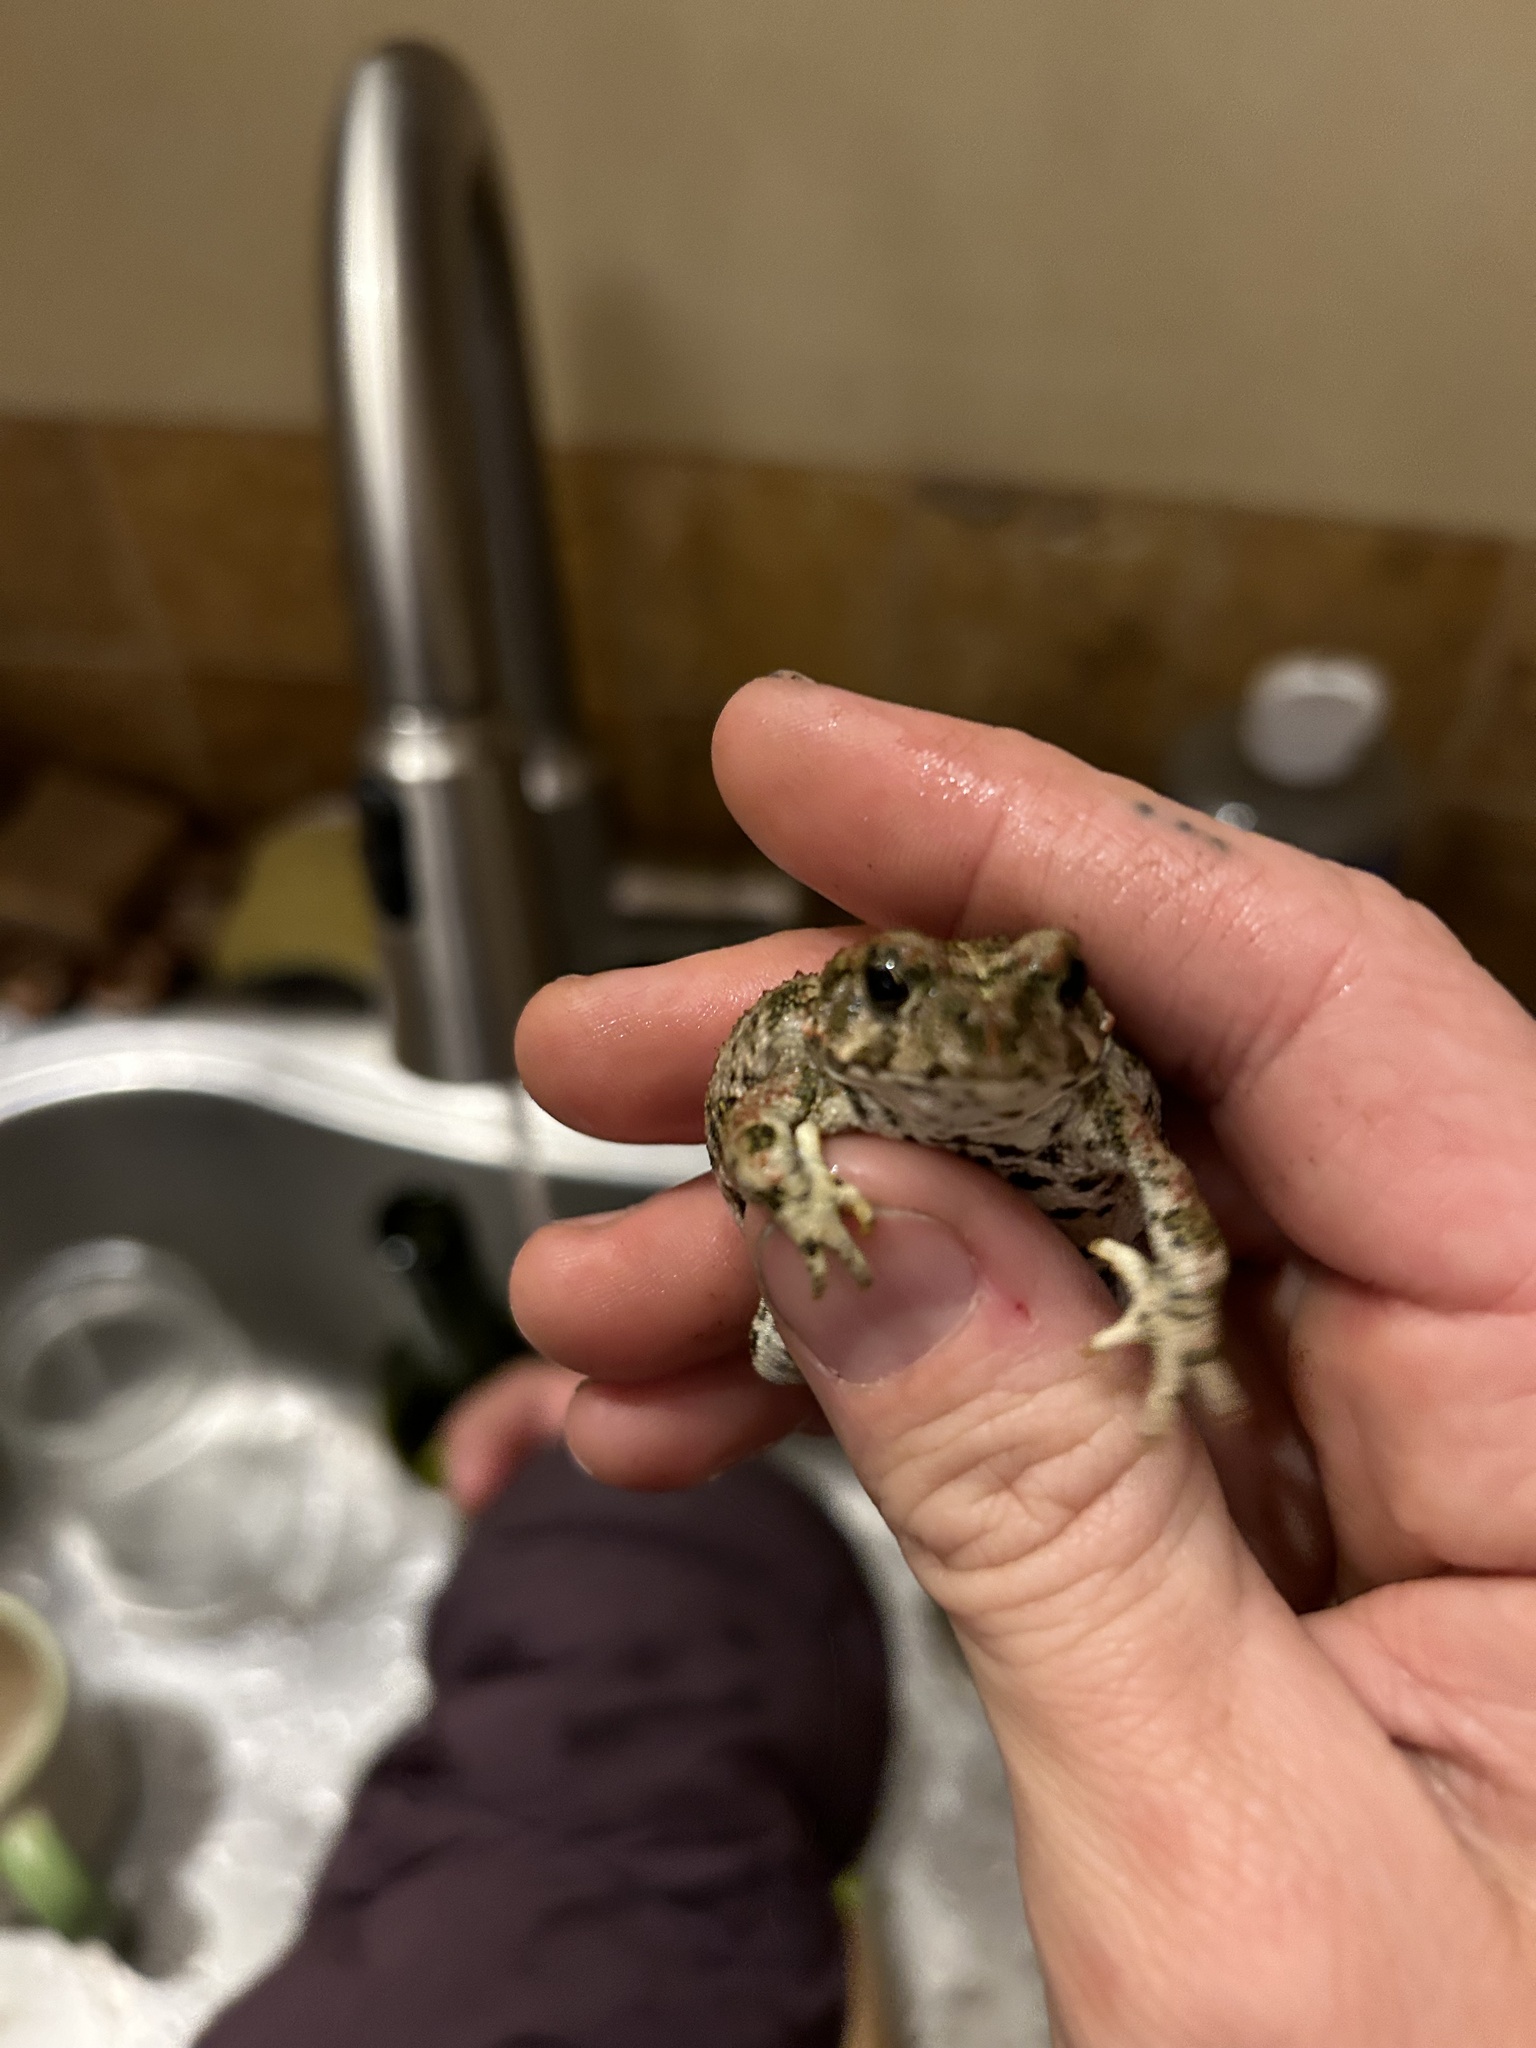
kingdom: Animalia
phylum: Chordata
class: Amphibia
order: Anura
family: Bufonidae
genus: Anaxyrus
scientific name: Anaxyrus boreas
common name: Western toad
